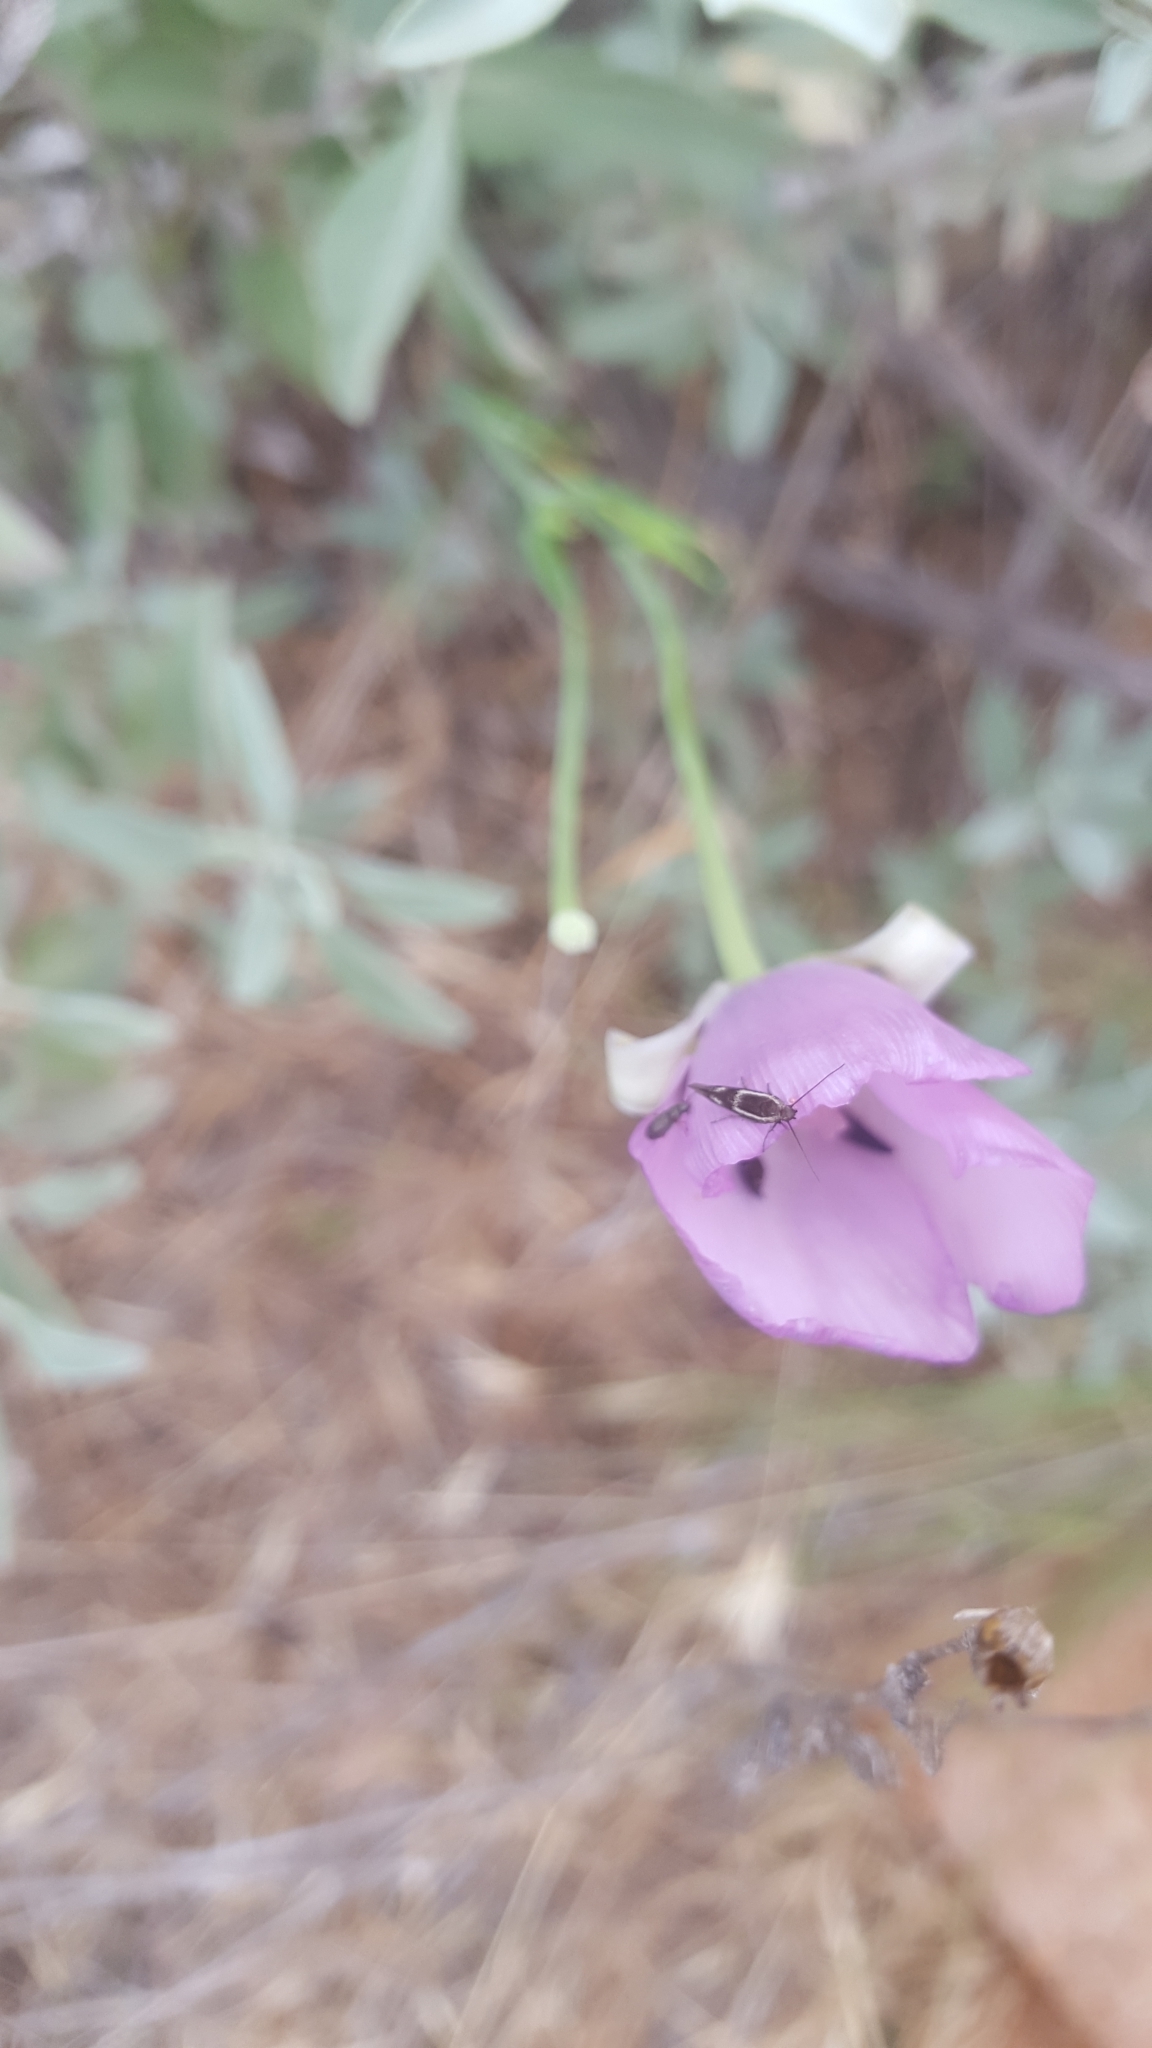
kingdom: Plantae
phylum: Tracheophyta
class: Liliopsida
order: Liliales
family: Liliaceae
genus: Calochortus
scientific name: Calochortus splendens
